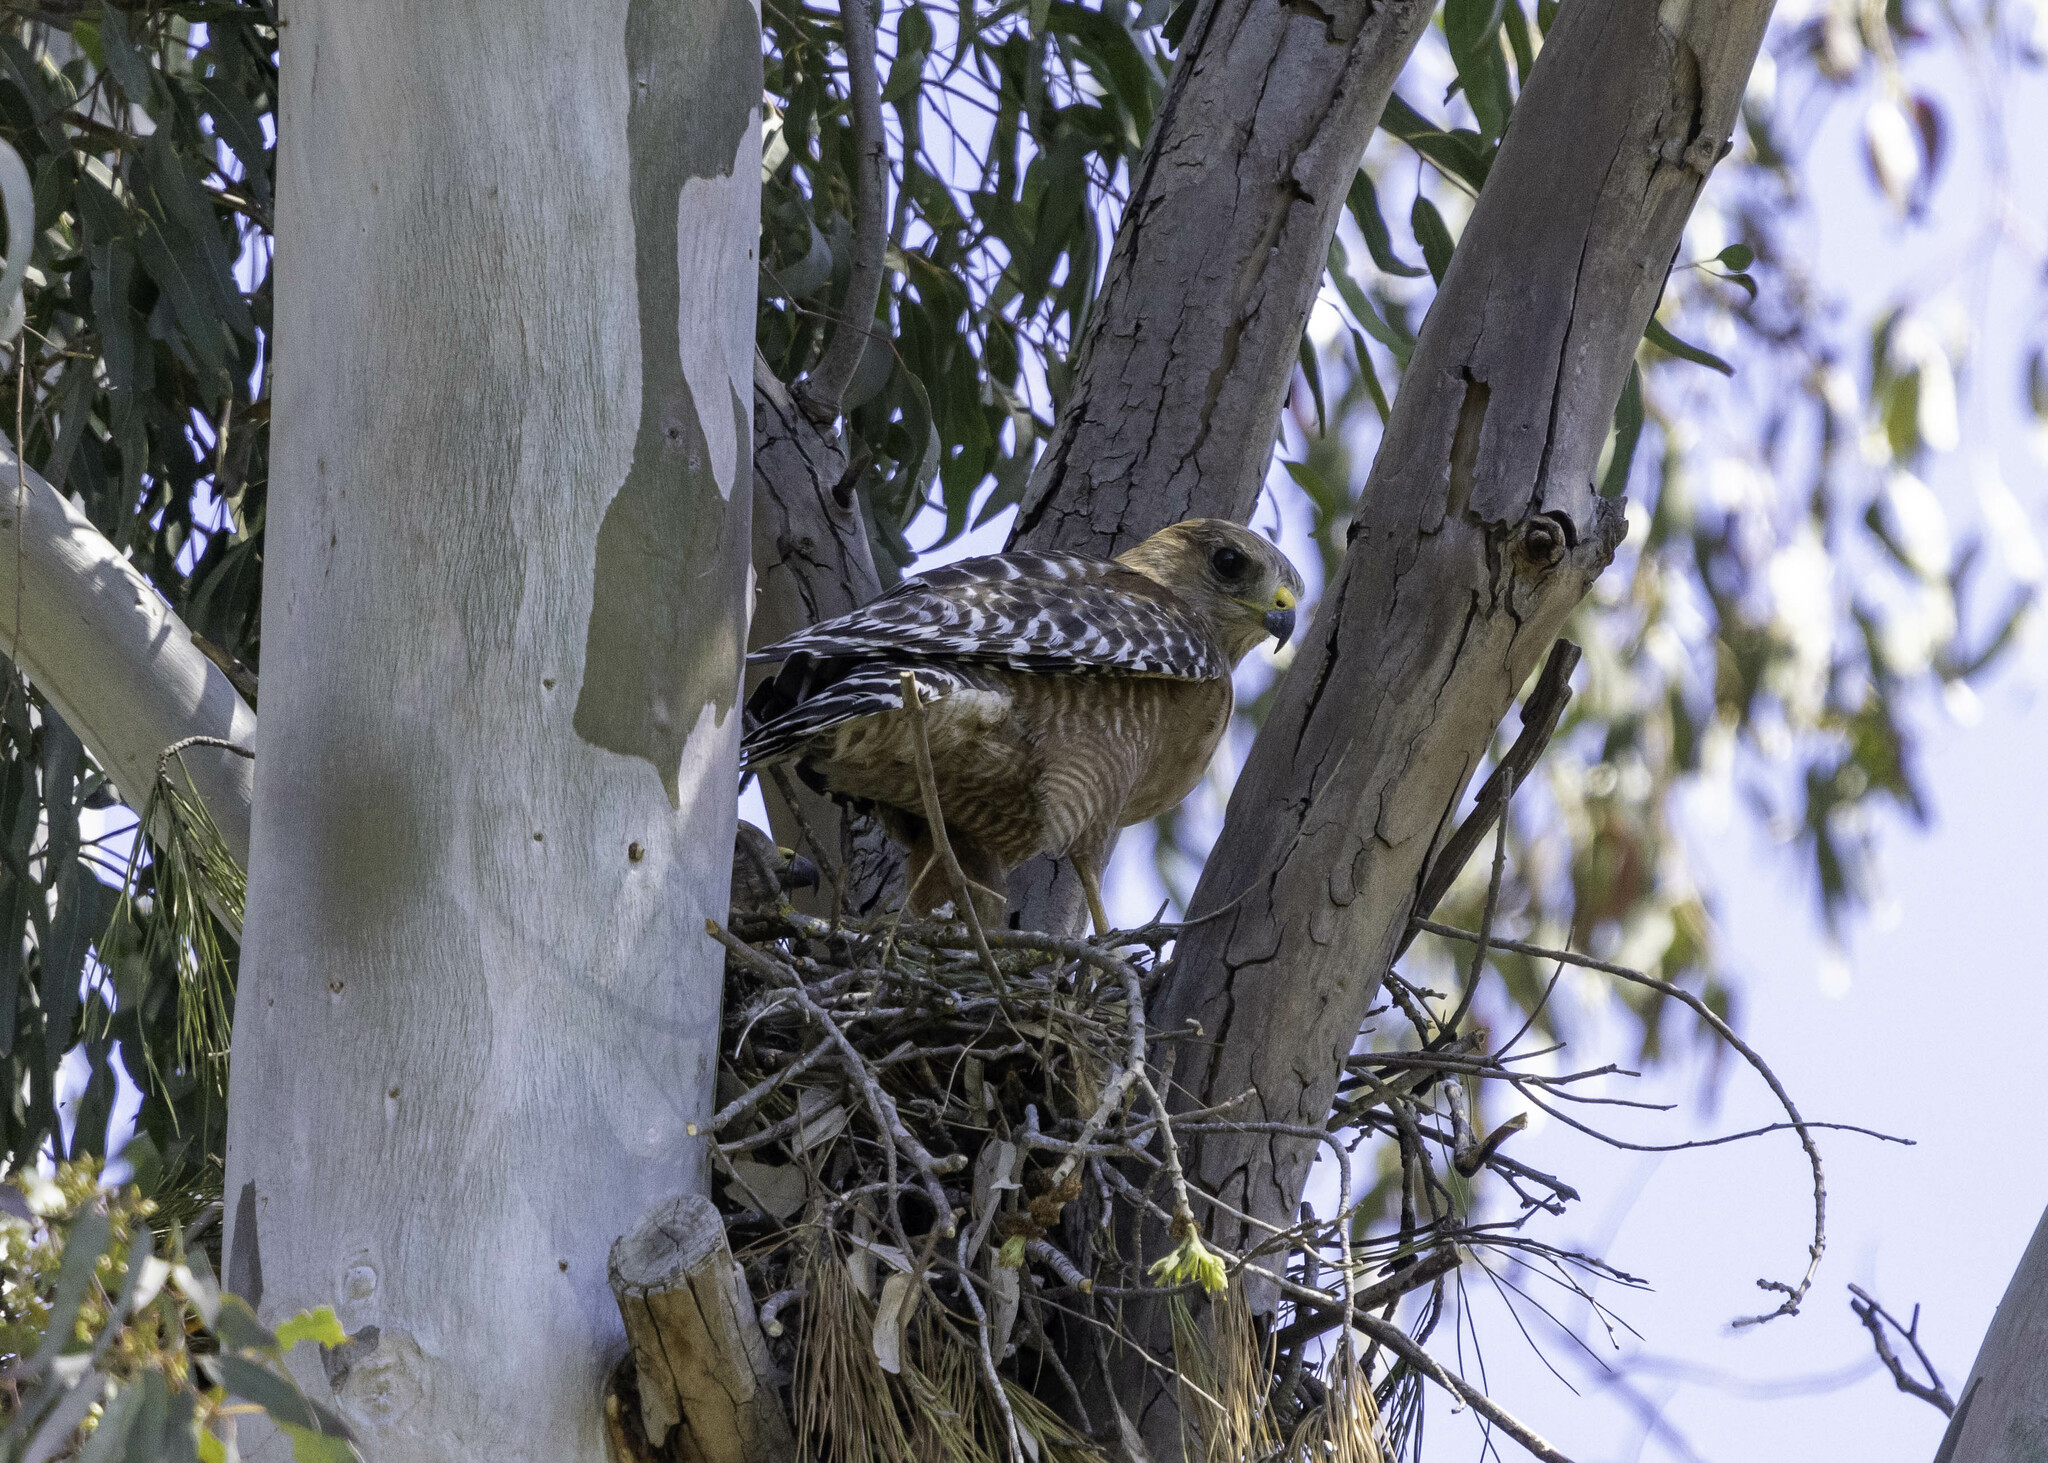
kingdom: Animalia
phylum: Chordata
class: Aves
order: Accipitriformes
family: Accipitridae
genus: Buteo
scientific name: Buteo lineatus
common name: Red-shouldered hawk
